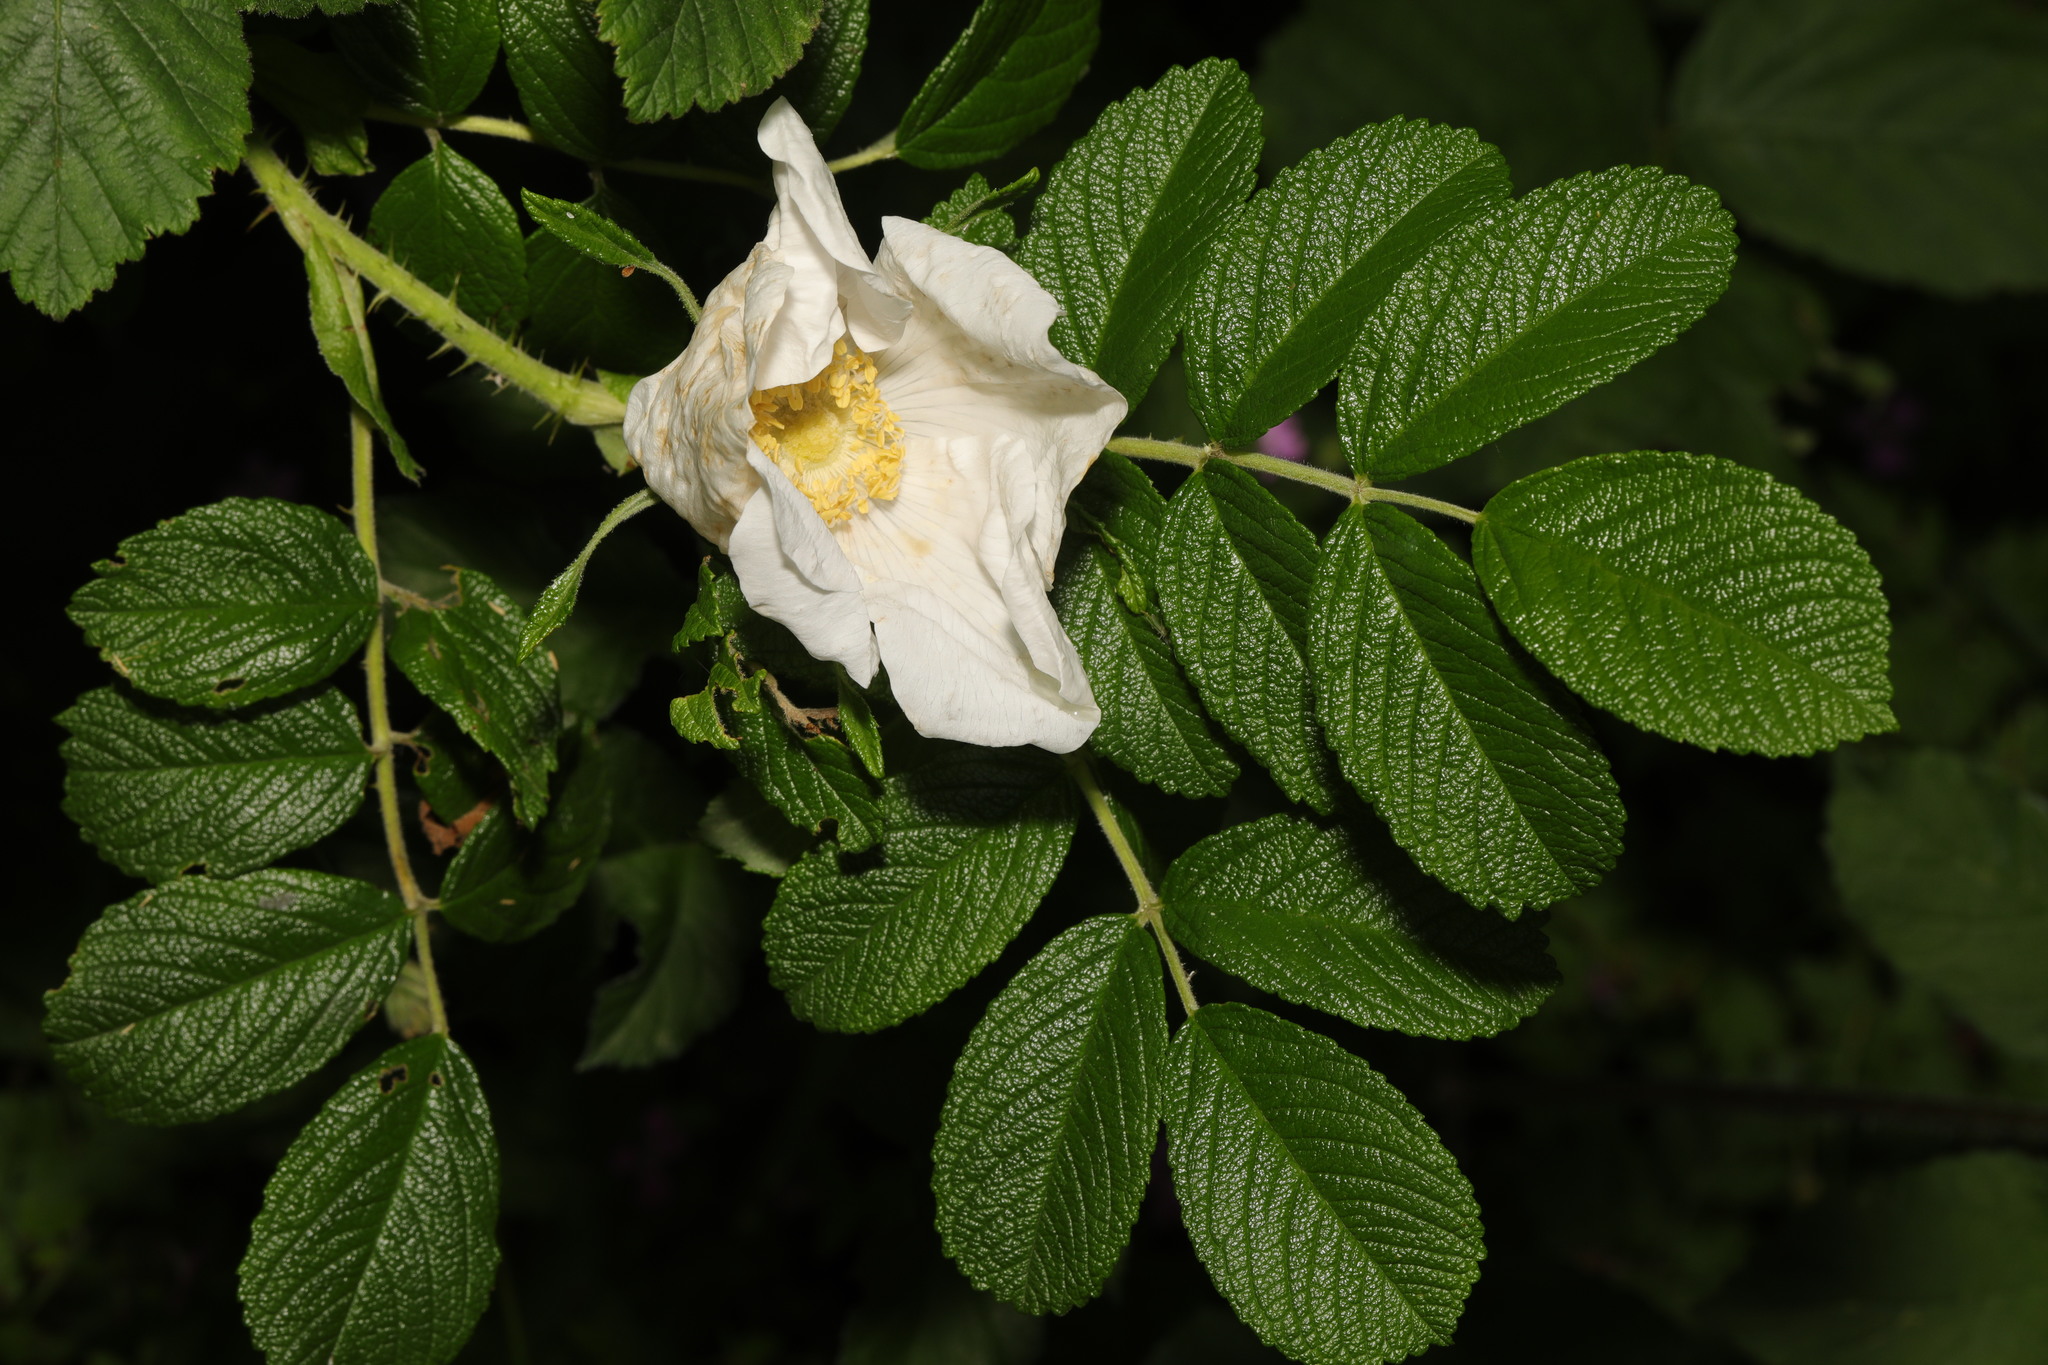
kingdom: Plantae
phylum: Tracheophyta
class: Magnoliopsida
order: Rosales
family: Rosaceae
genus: Rosa
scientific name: Rosa rugosa
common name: Japanese rose
